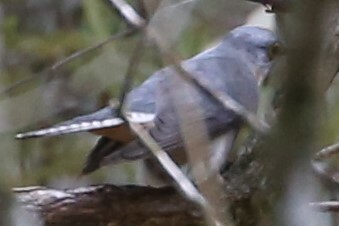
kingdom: Animalia
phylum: Chordata
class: Aves
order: Cuculiformes
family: Cuculidae
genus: Cacomantis
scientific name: Cacomantis flabelliformis
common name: Fan-tailed cuckoo
